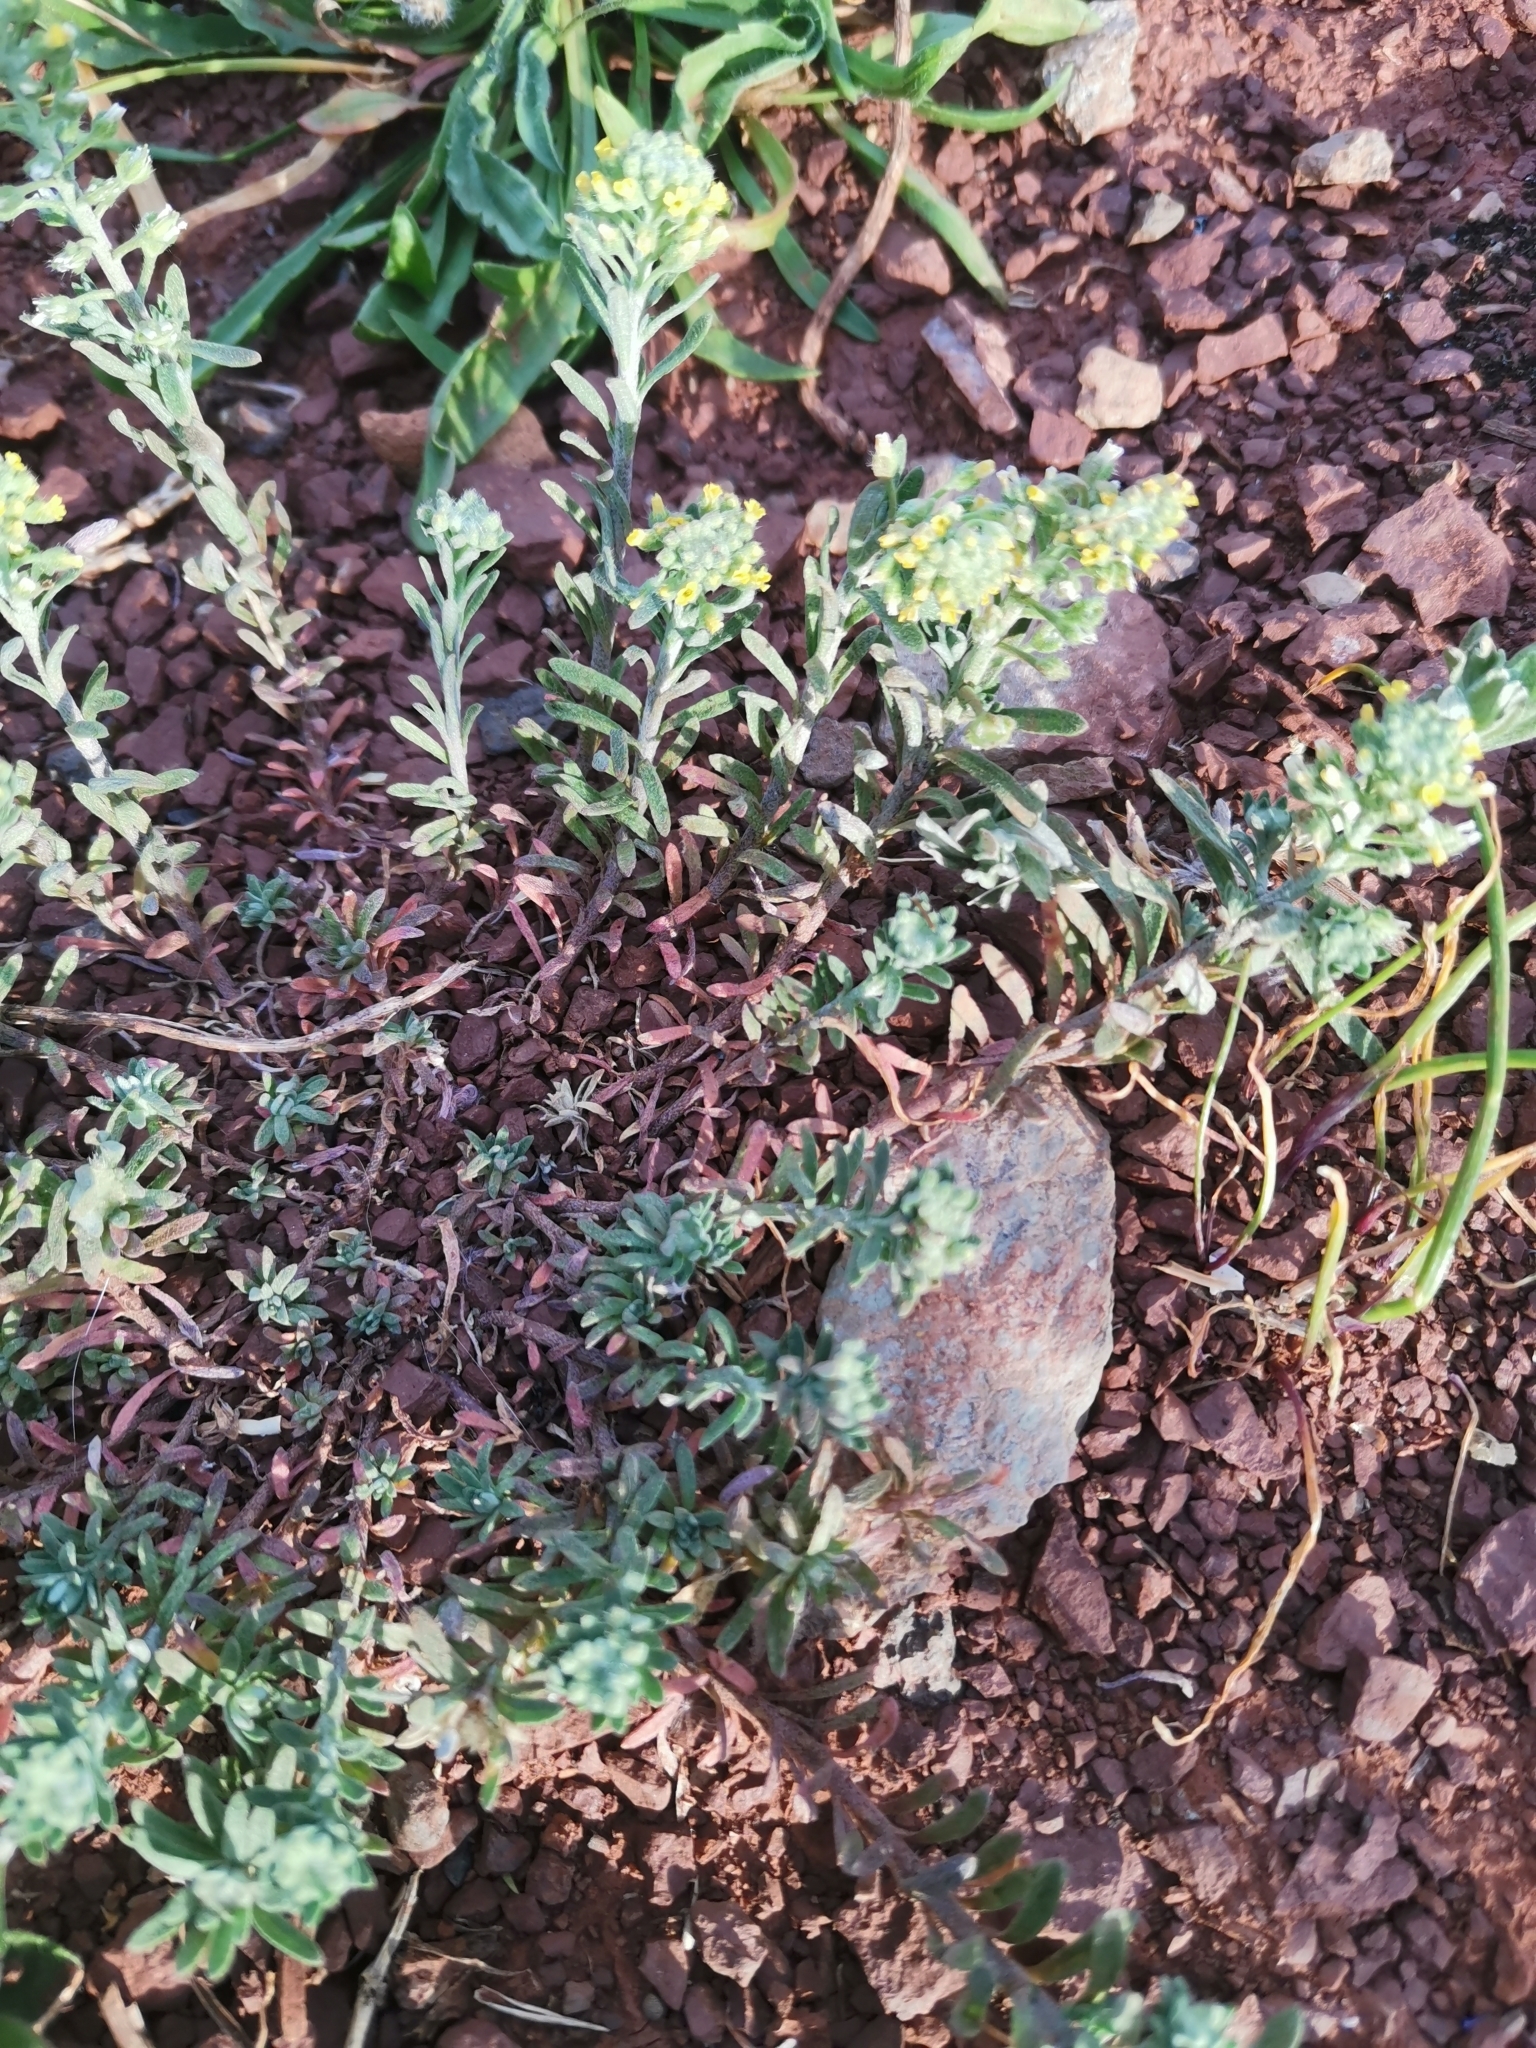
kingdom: Plantae
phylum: Tracheophyta
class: Magnoliopsida
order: Brassicales
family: Brassicaceae
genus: Alyssum
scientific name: Alyssum alyssoides
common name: Small alison
